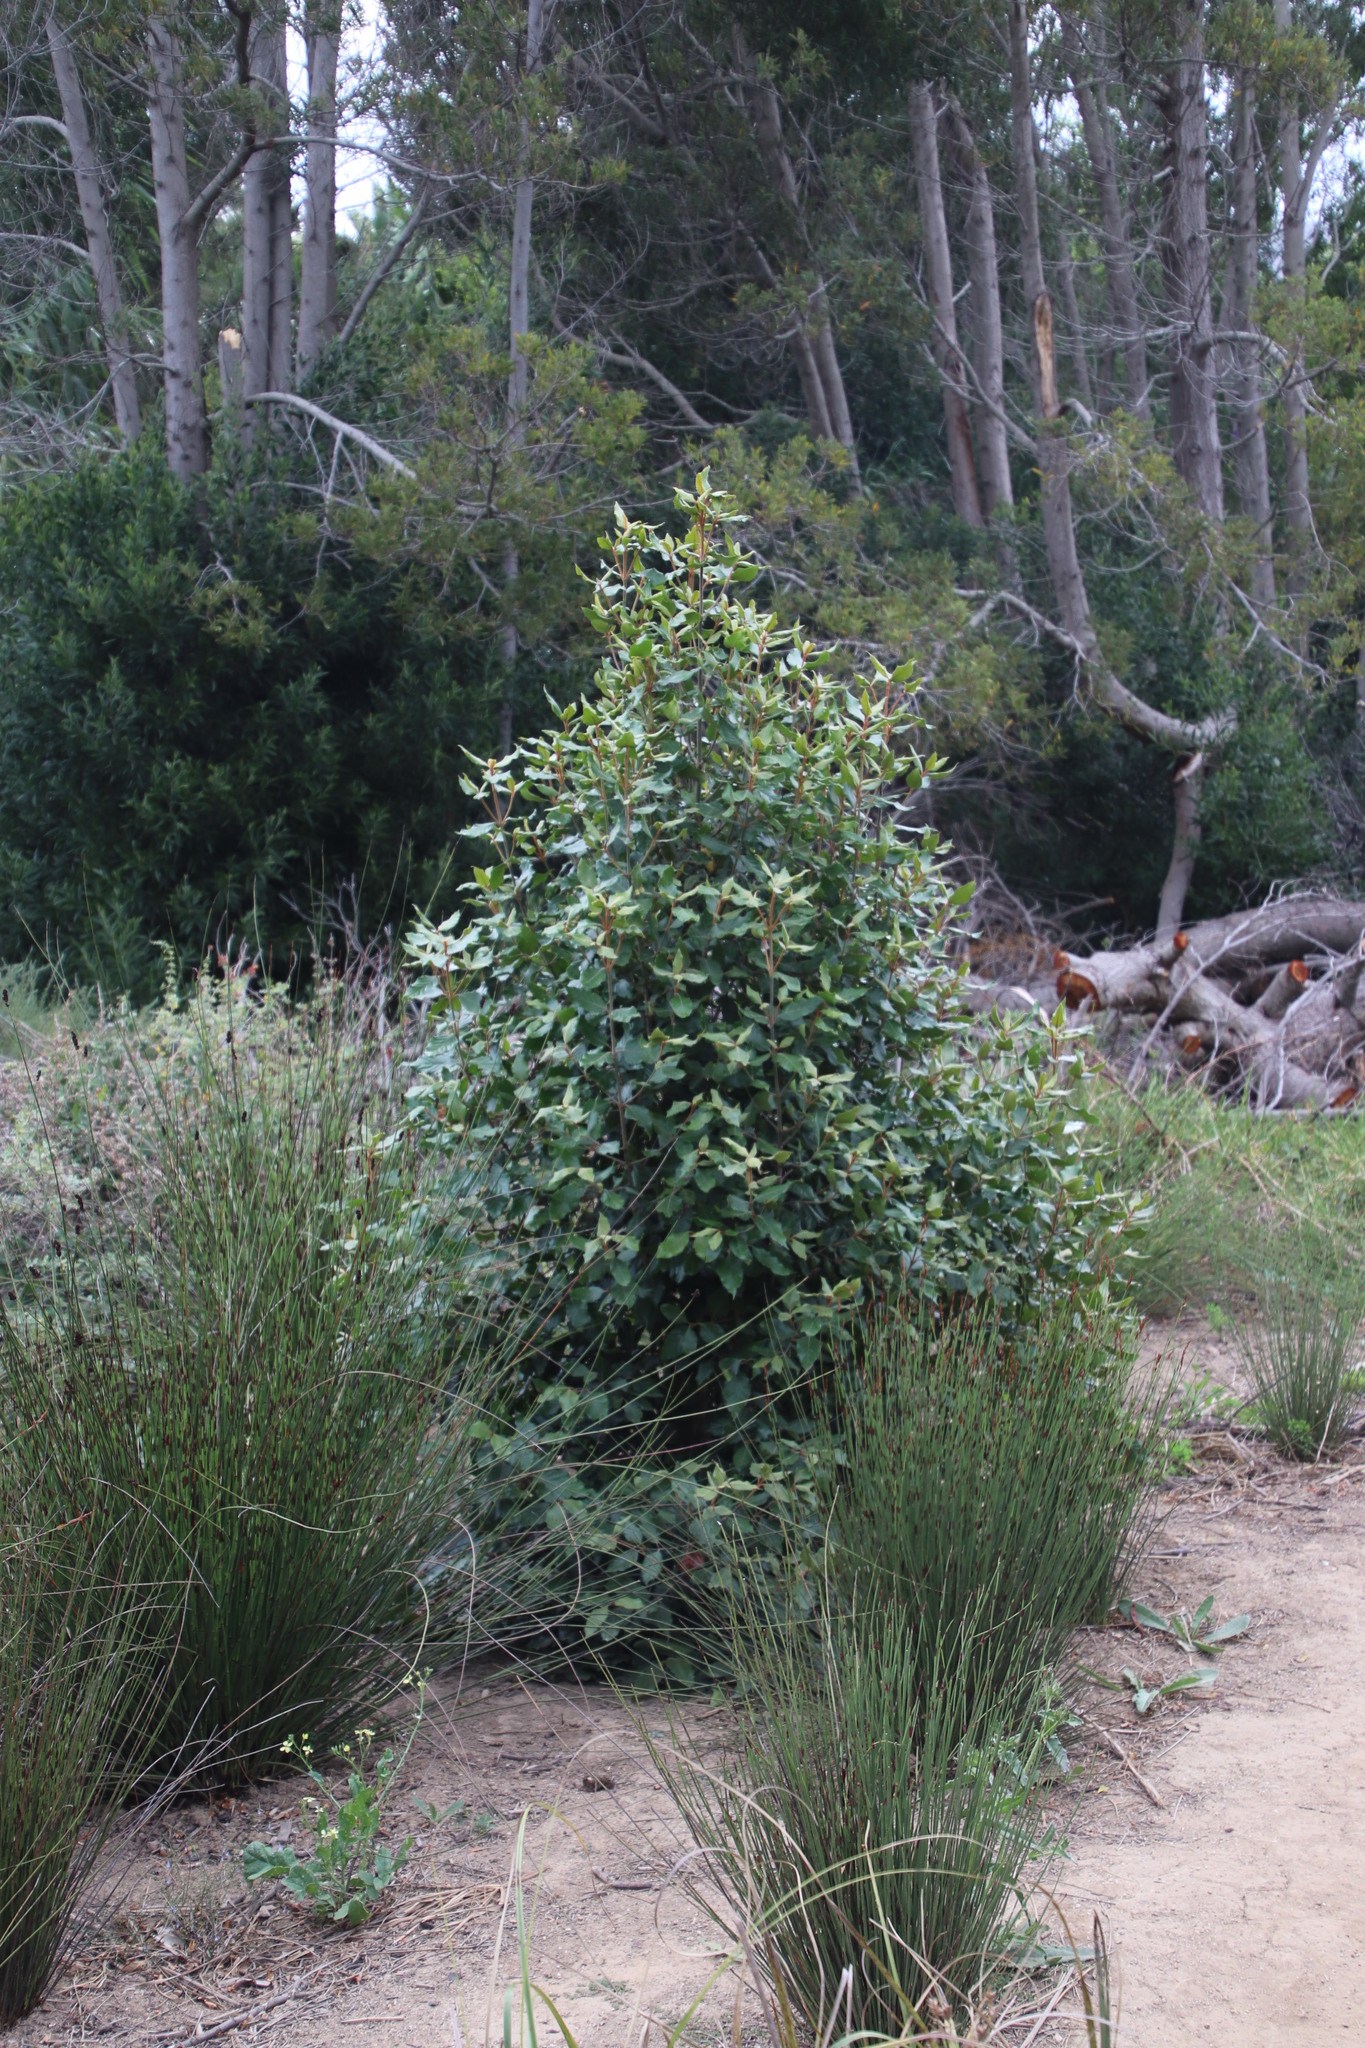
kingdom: Plantae
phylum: Tracheophyta
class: Magnoliopsida
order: Cornales
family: Curtisiaceae
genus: Curtisia
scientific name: Curtisia dentata
